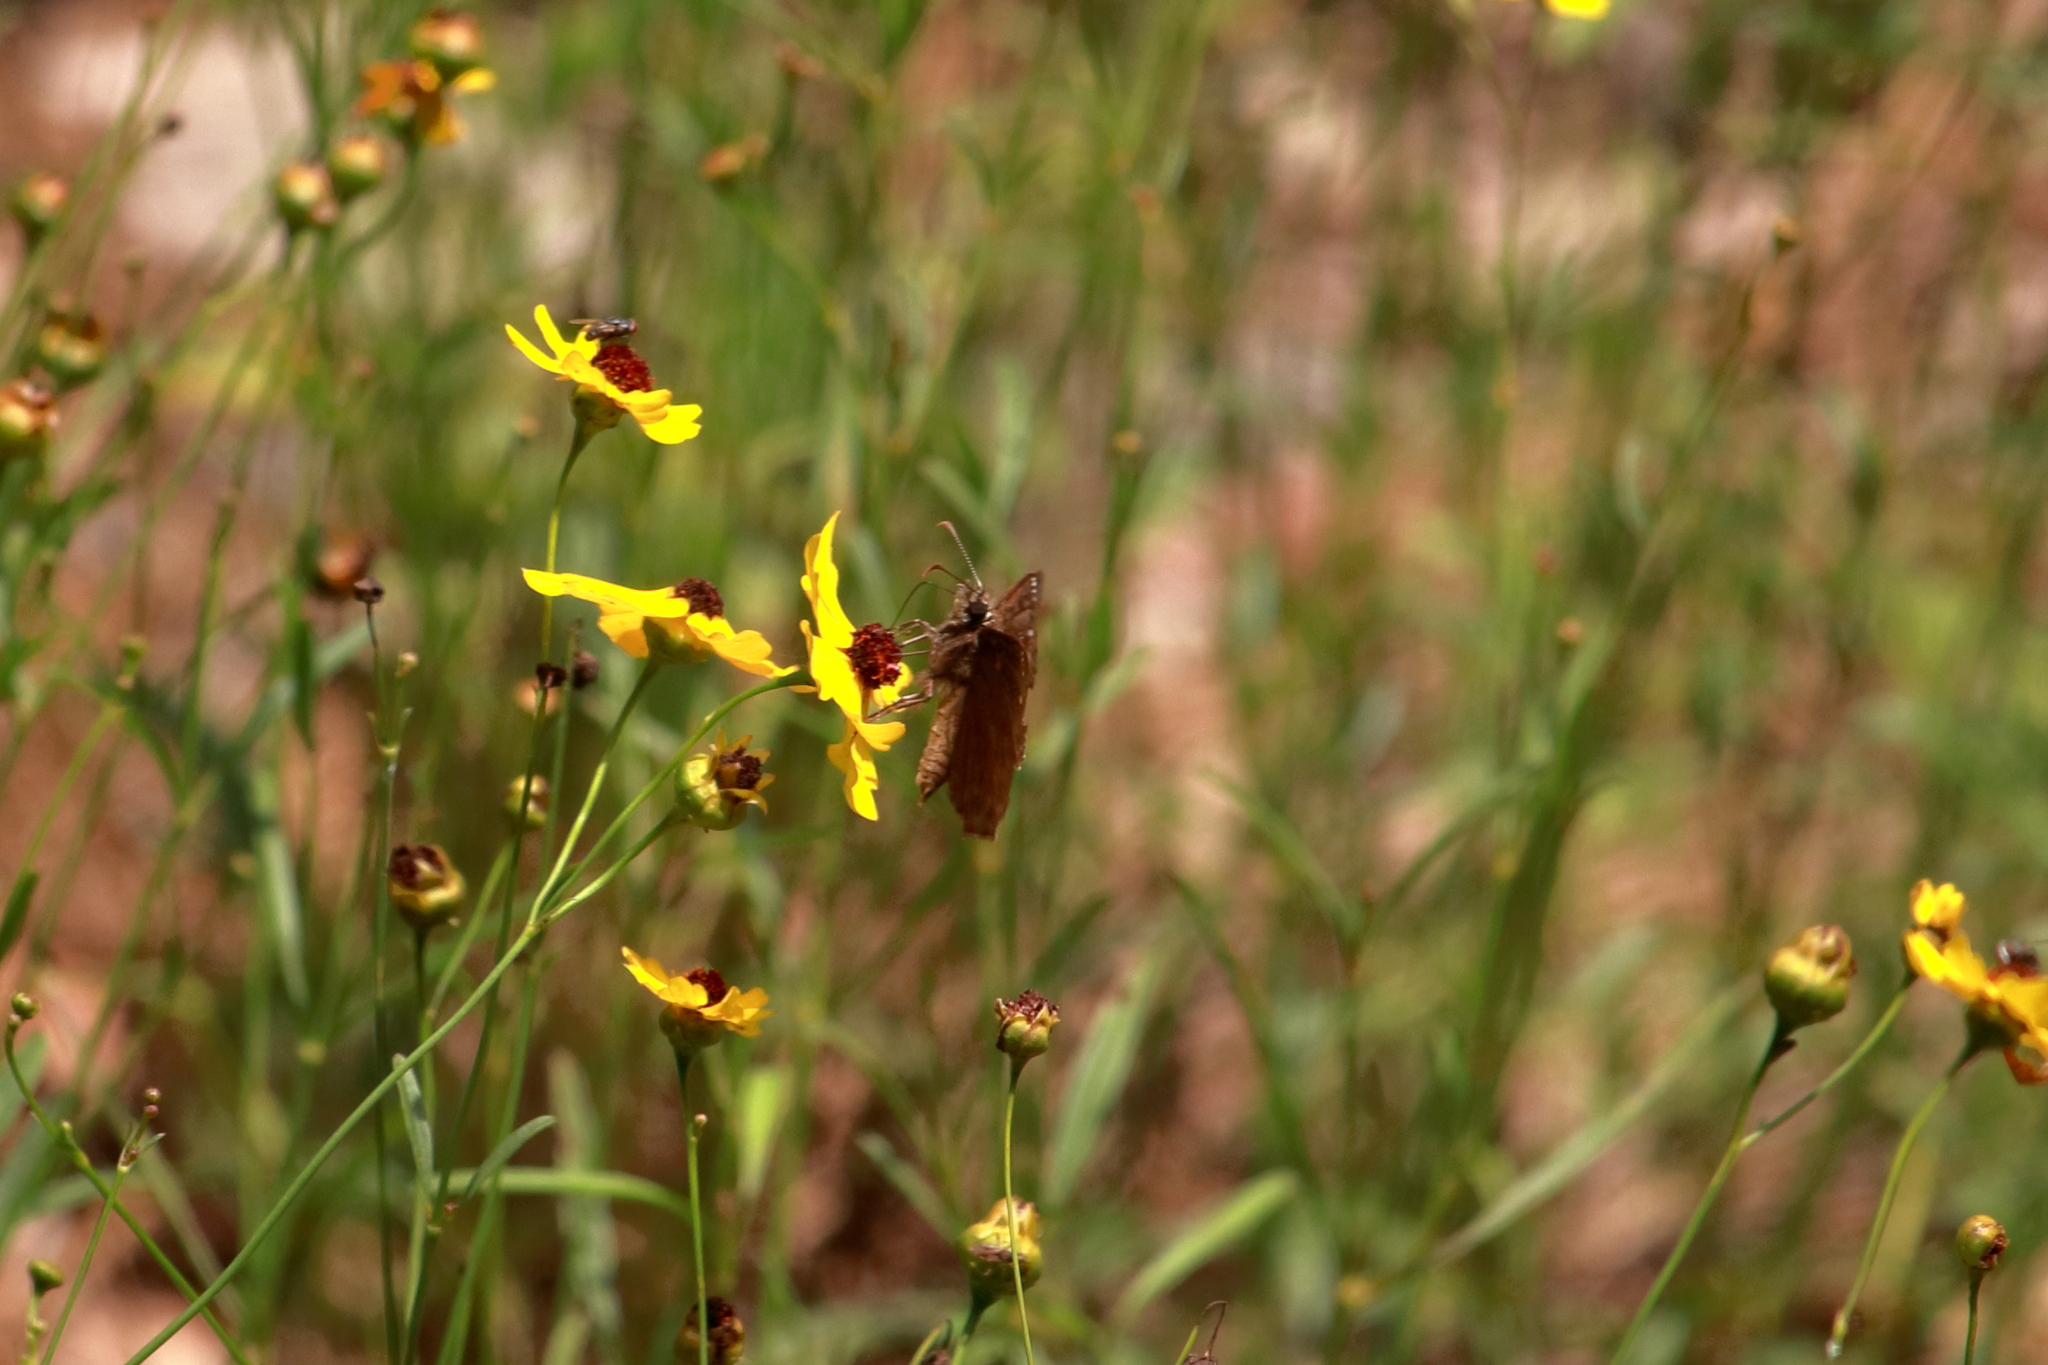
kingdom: Animalia
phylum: Arthropoda
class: Insecta
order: Lepidoptera
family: Hesperiidae
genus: Erynnis
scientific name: Erynnis horatius
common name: Horace's duskywing
